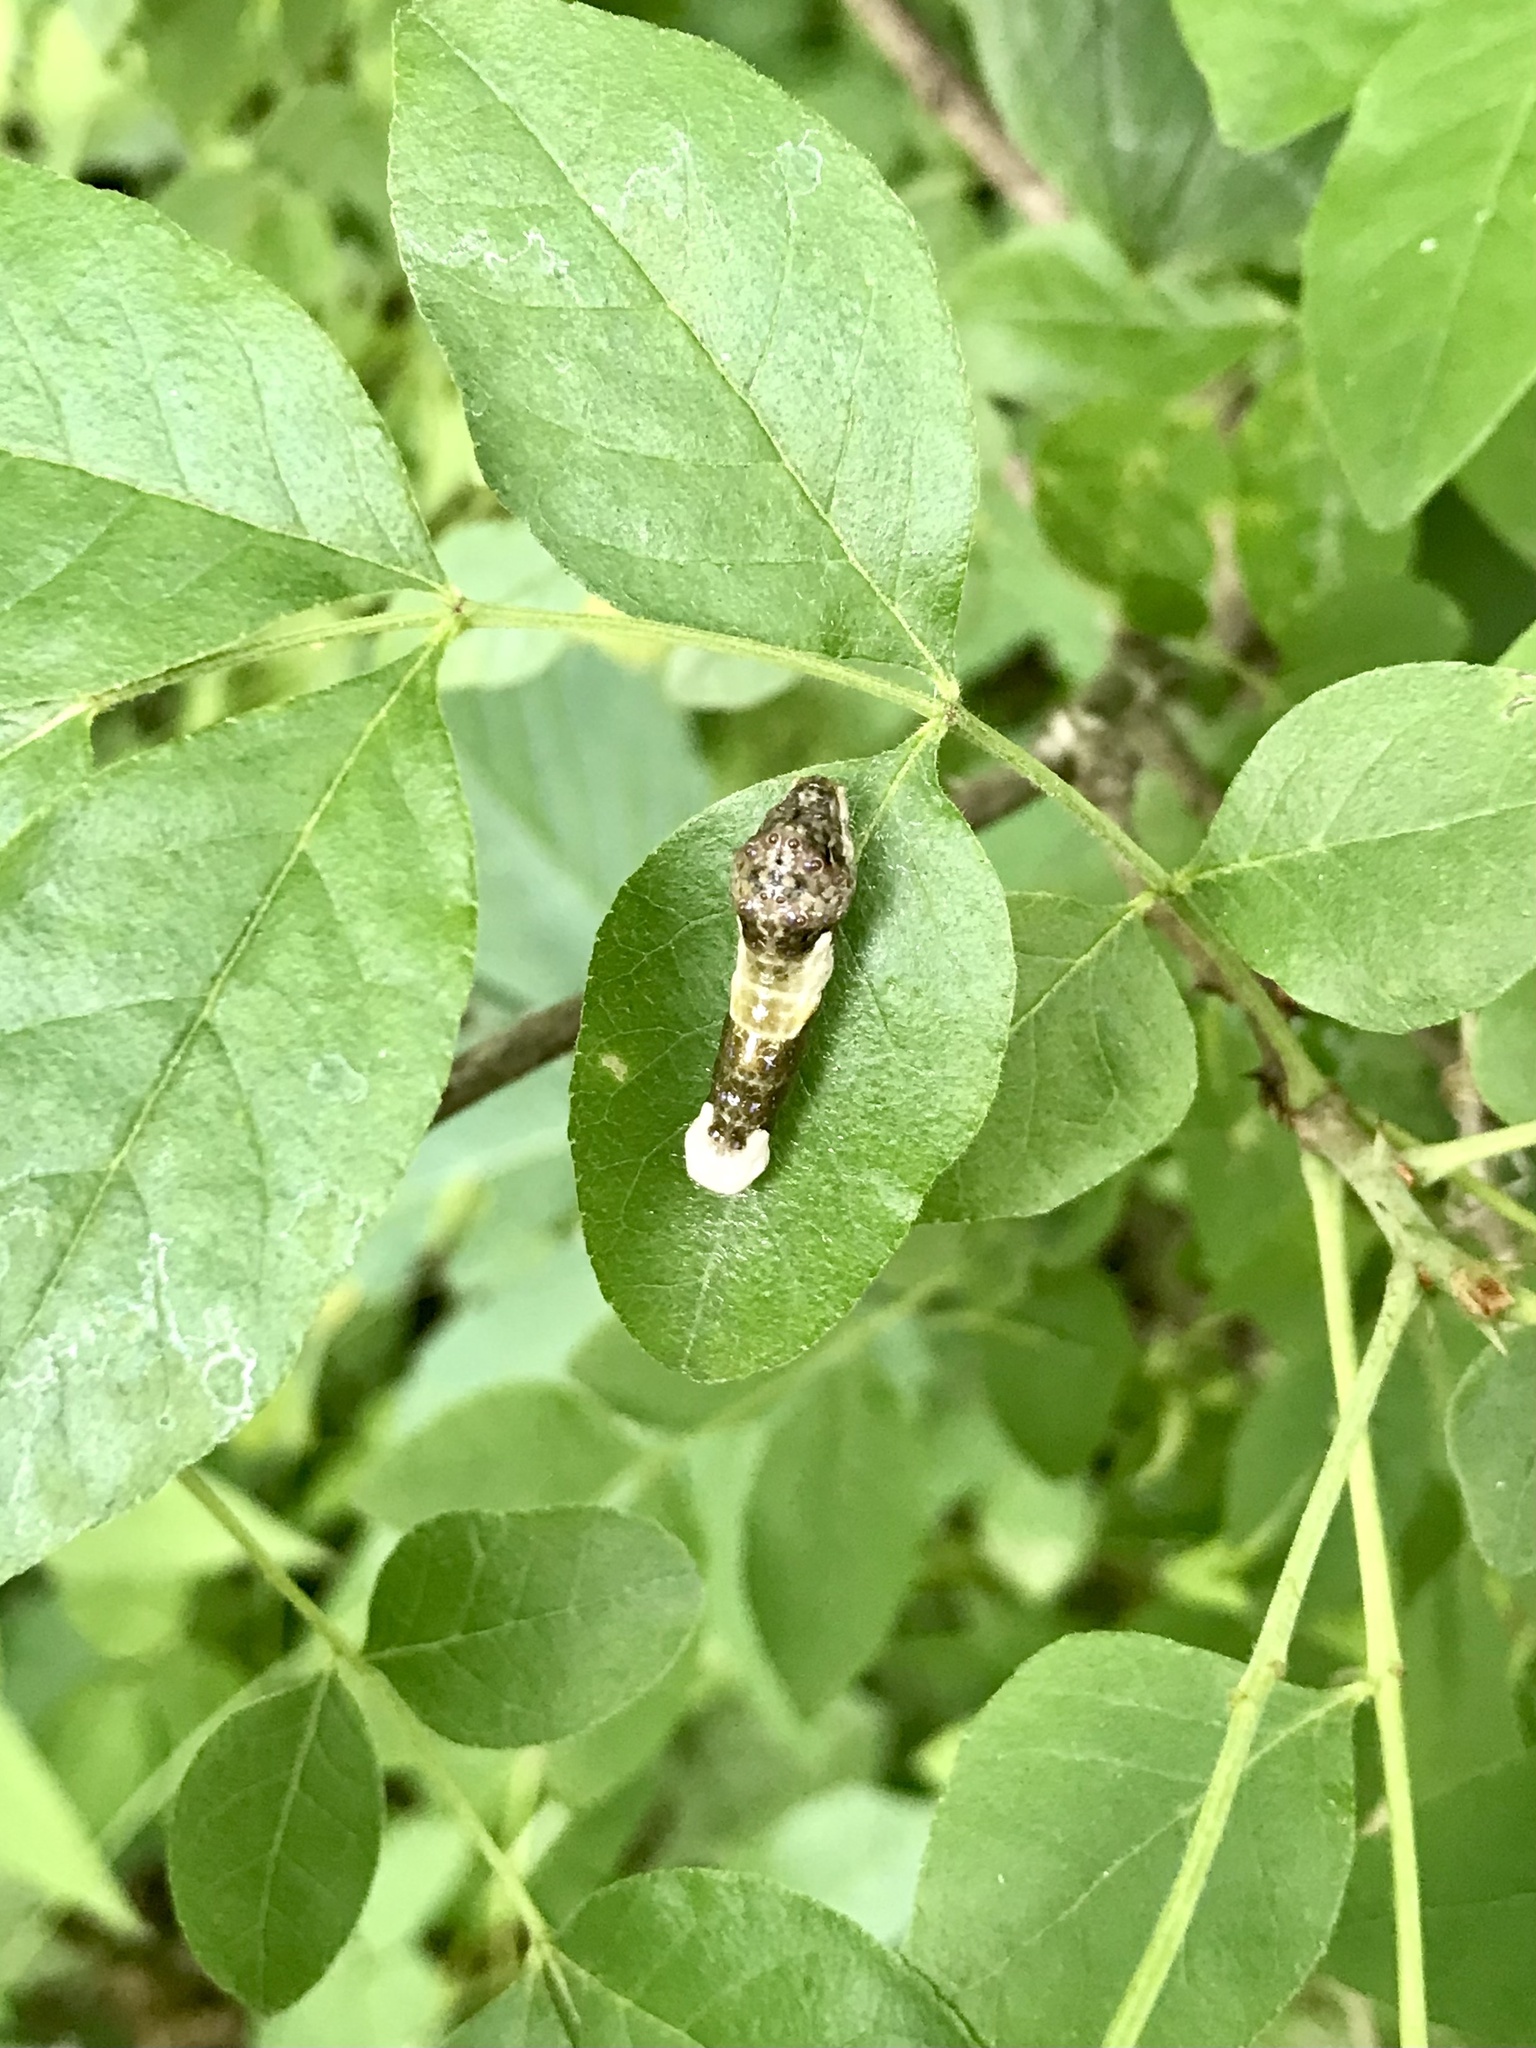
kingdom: Animalia
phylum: Arthropoda
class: Insecta
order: Lepidoptera
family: Papilionidae
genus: Papilio
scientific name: Papilio cresphontes
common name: Giant swallowtail
